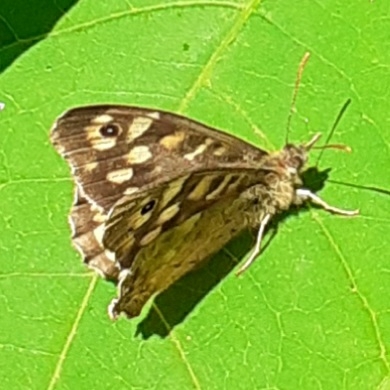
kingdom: Animalia
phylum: Arthropoda
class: Insecta
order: Lepidoptera
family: Nymphalidae
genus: Pararge
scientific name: Pararge aegeria
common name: Speckled wood
